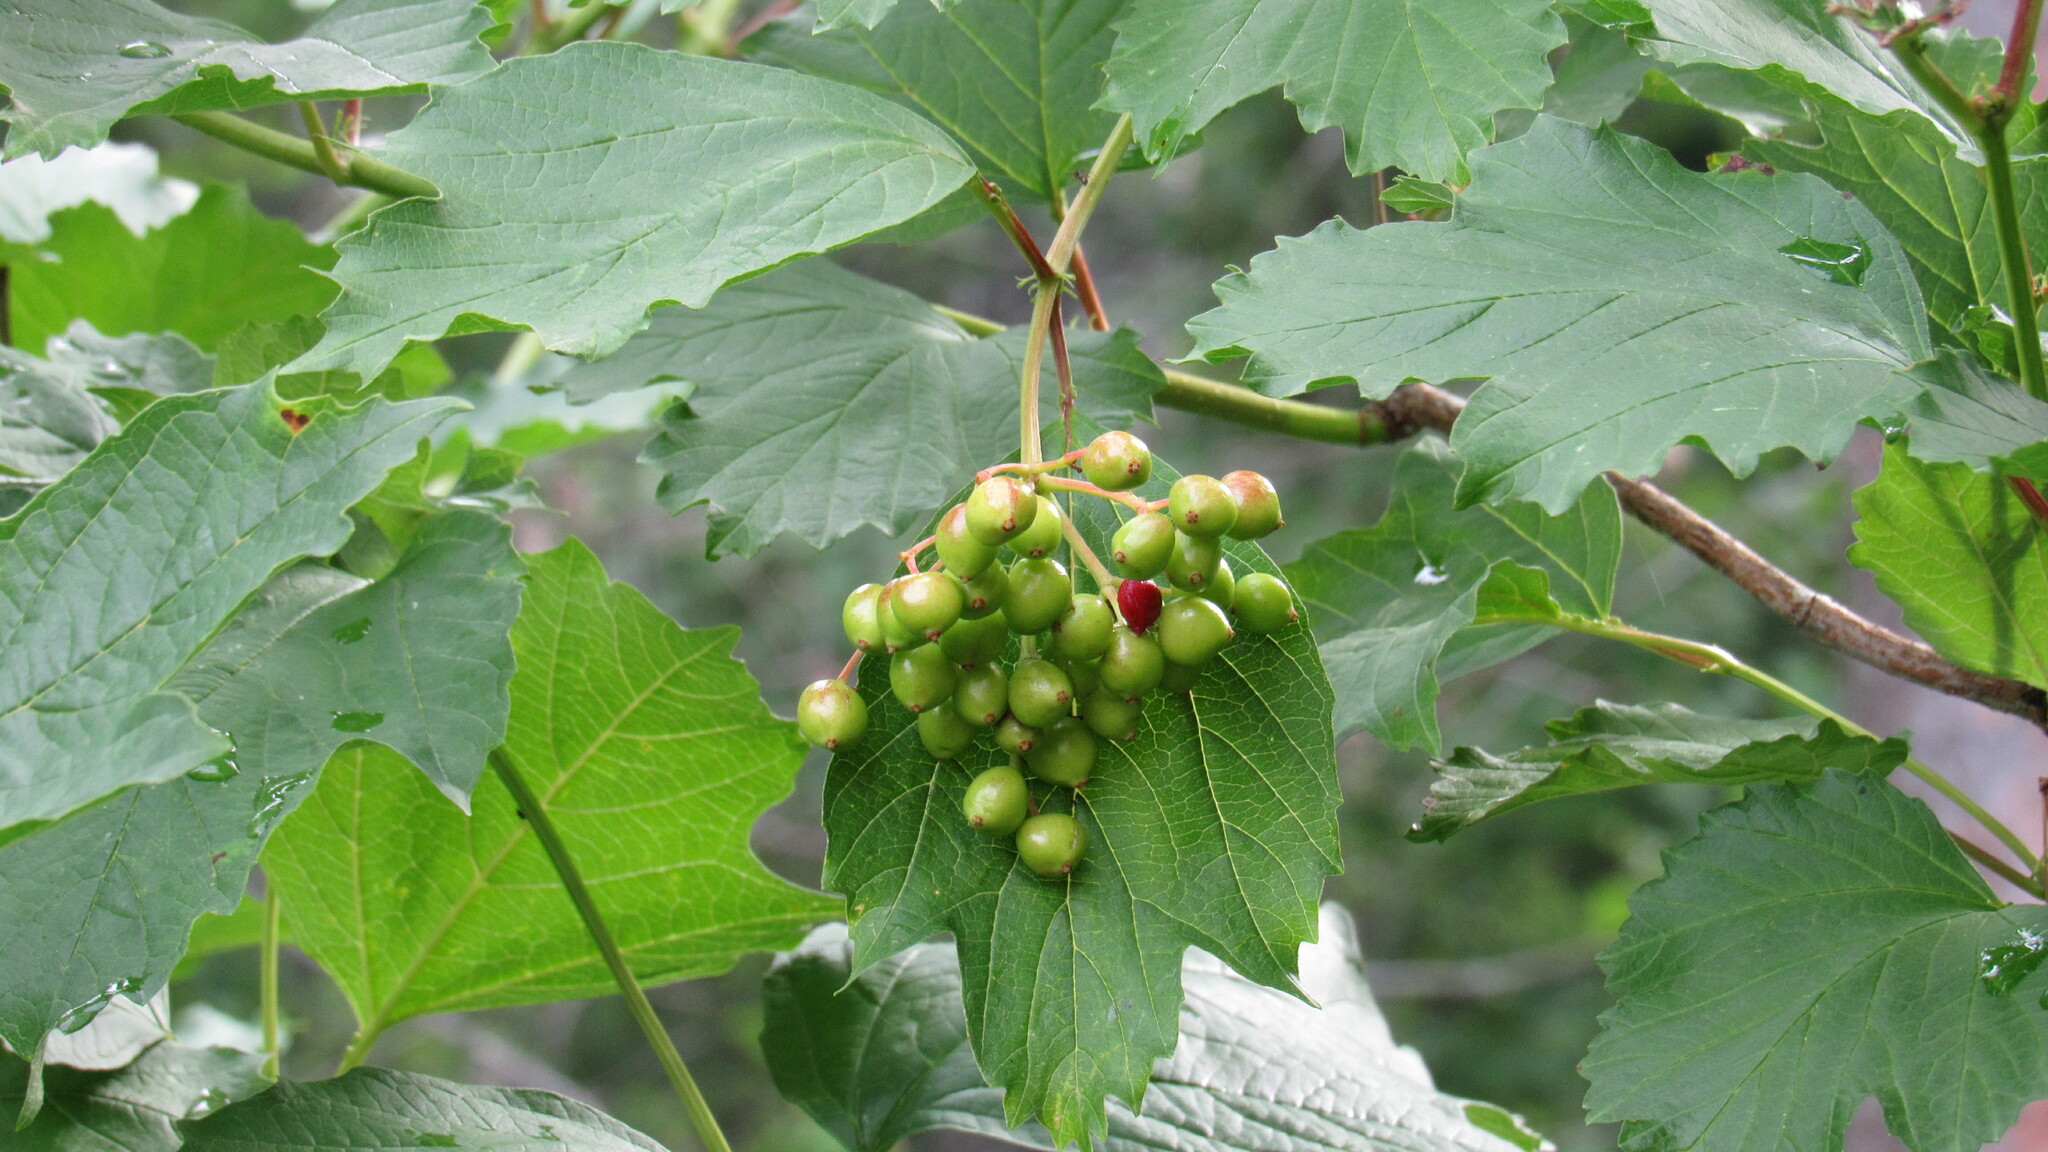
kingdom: Plantae
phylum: Tracheophyta
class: Magnoliopsida
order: Dipsacales
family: Viburnaceae
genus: Viburnum
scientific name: Viburnum opulus
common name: Guelder-rose
